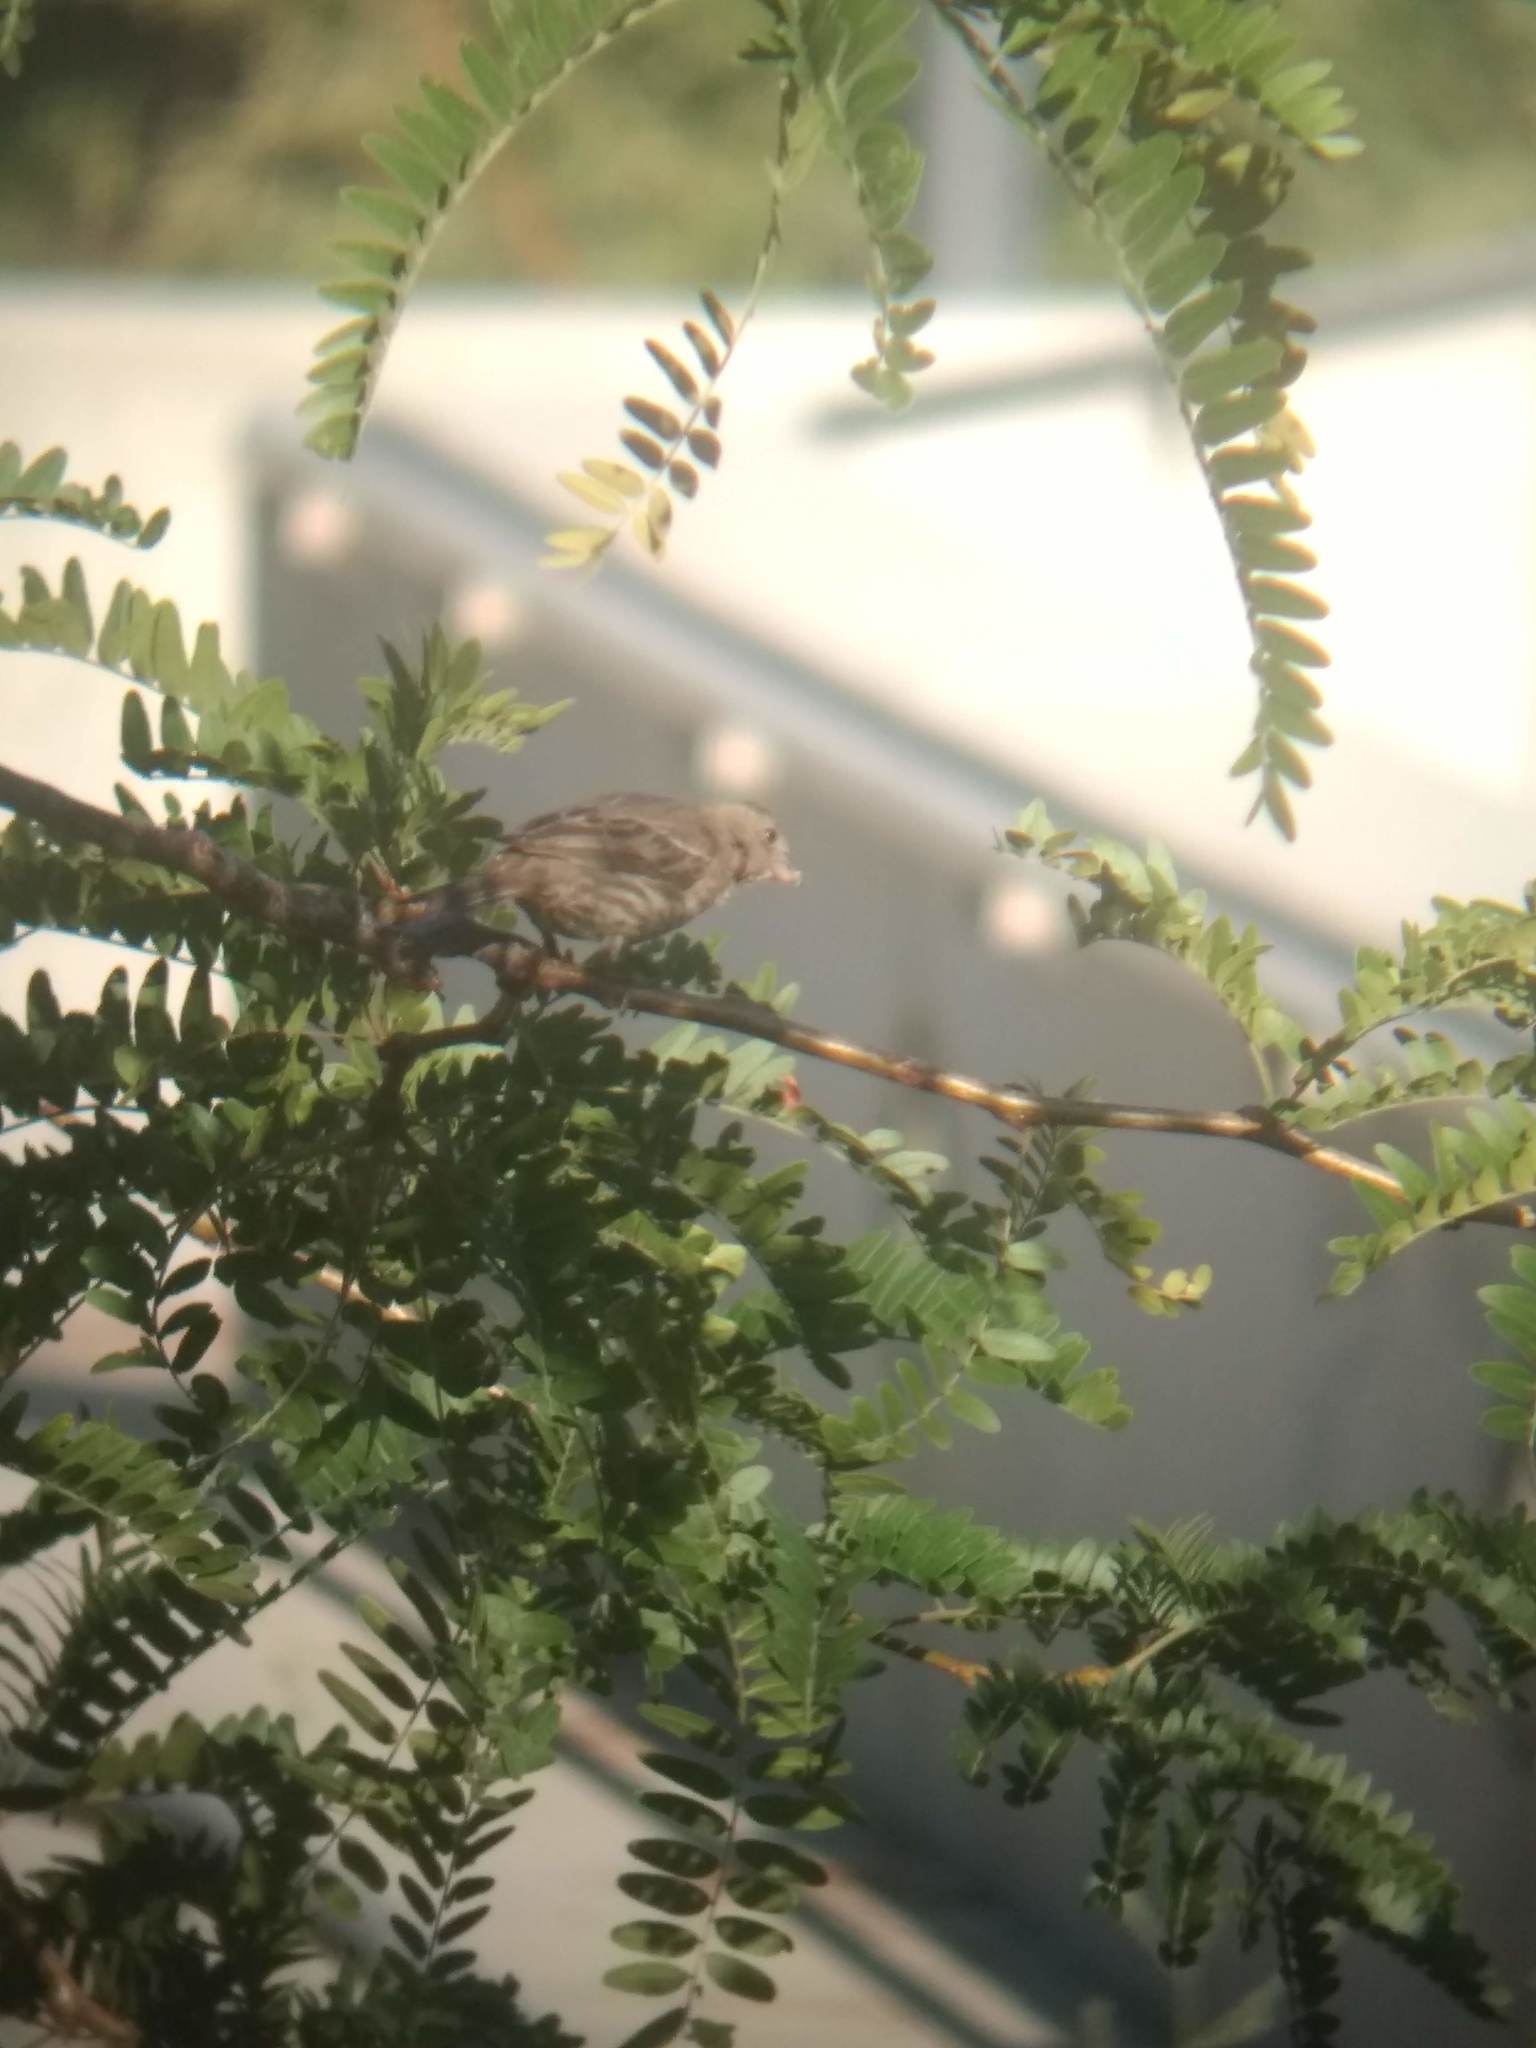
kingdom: Animalia
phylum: Chordata
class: Aves
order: Passeriformes
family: Fringillidae
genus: Haemorhous
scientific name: Haemorhous mexicanus
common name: House finch
